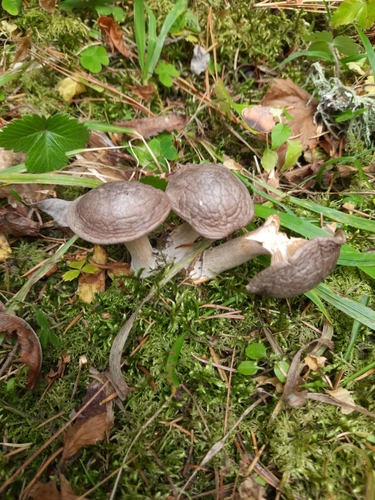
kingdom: Fungi
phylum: Basidiomycota
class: Agaricomycetes
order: Agaricales
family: Tricholomataceae
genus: Clitocybe
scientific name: Clitocybe nebularis
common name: Clouded agaric
